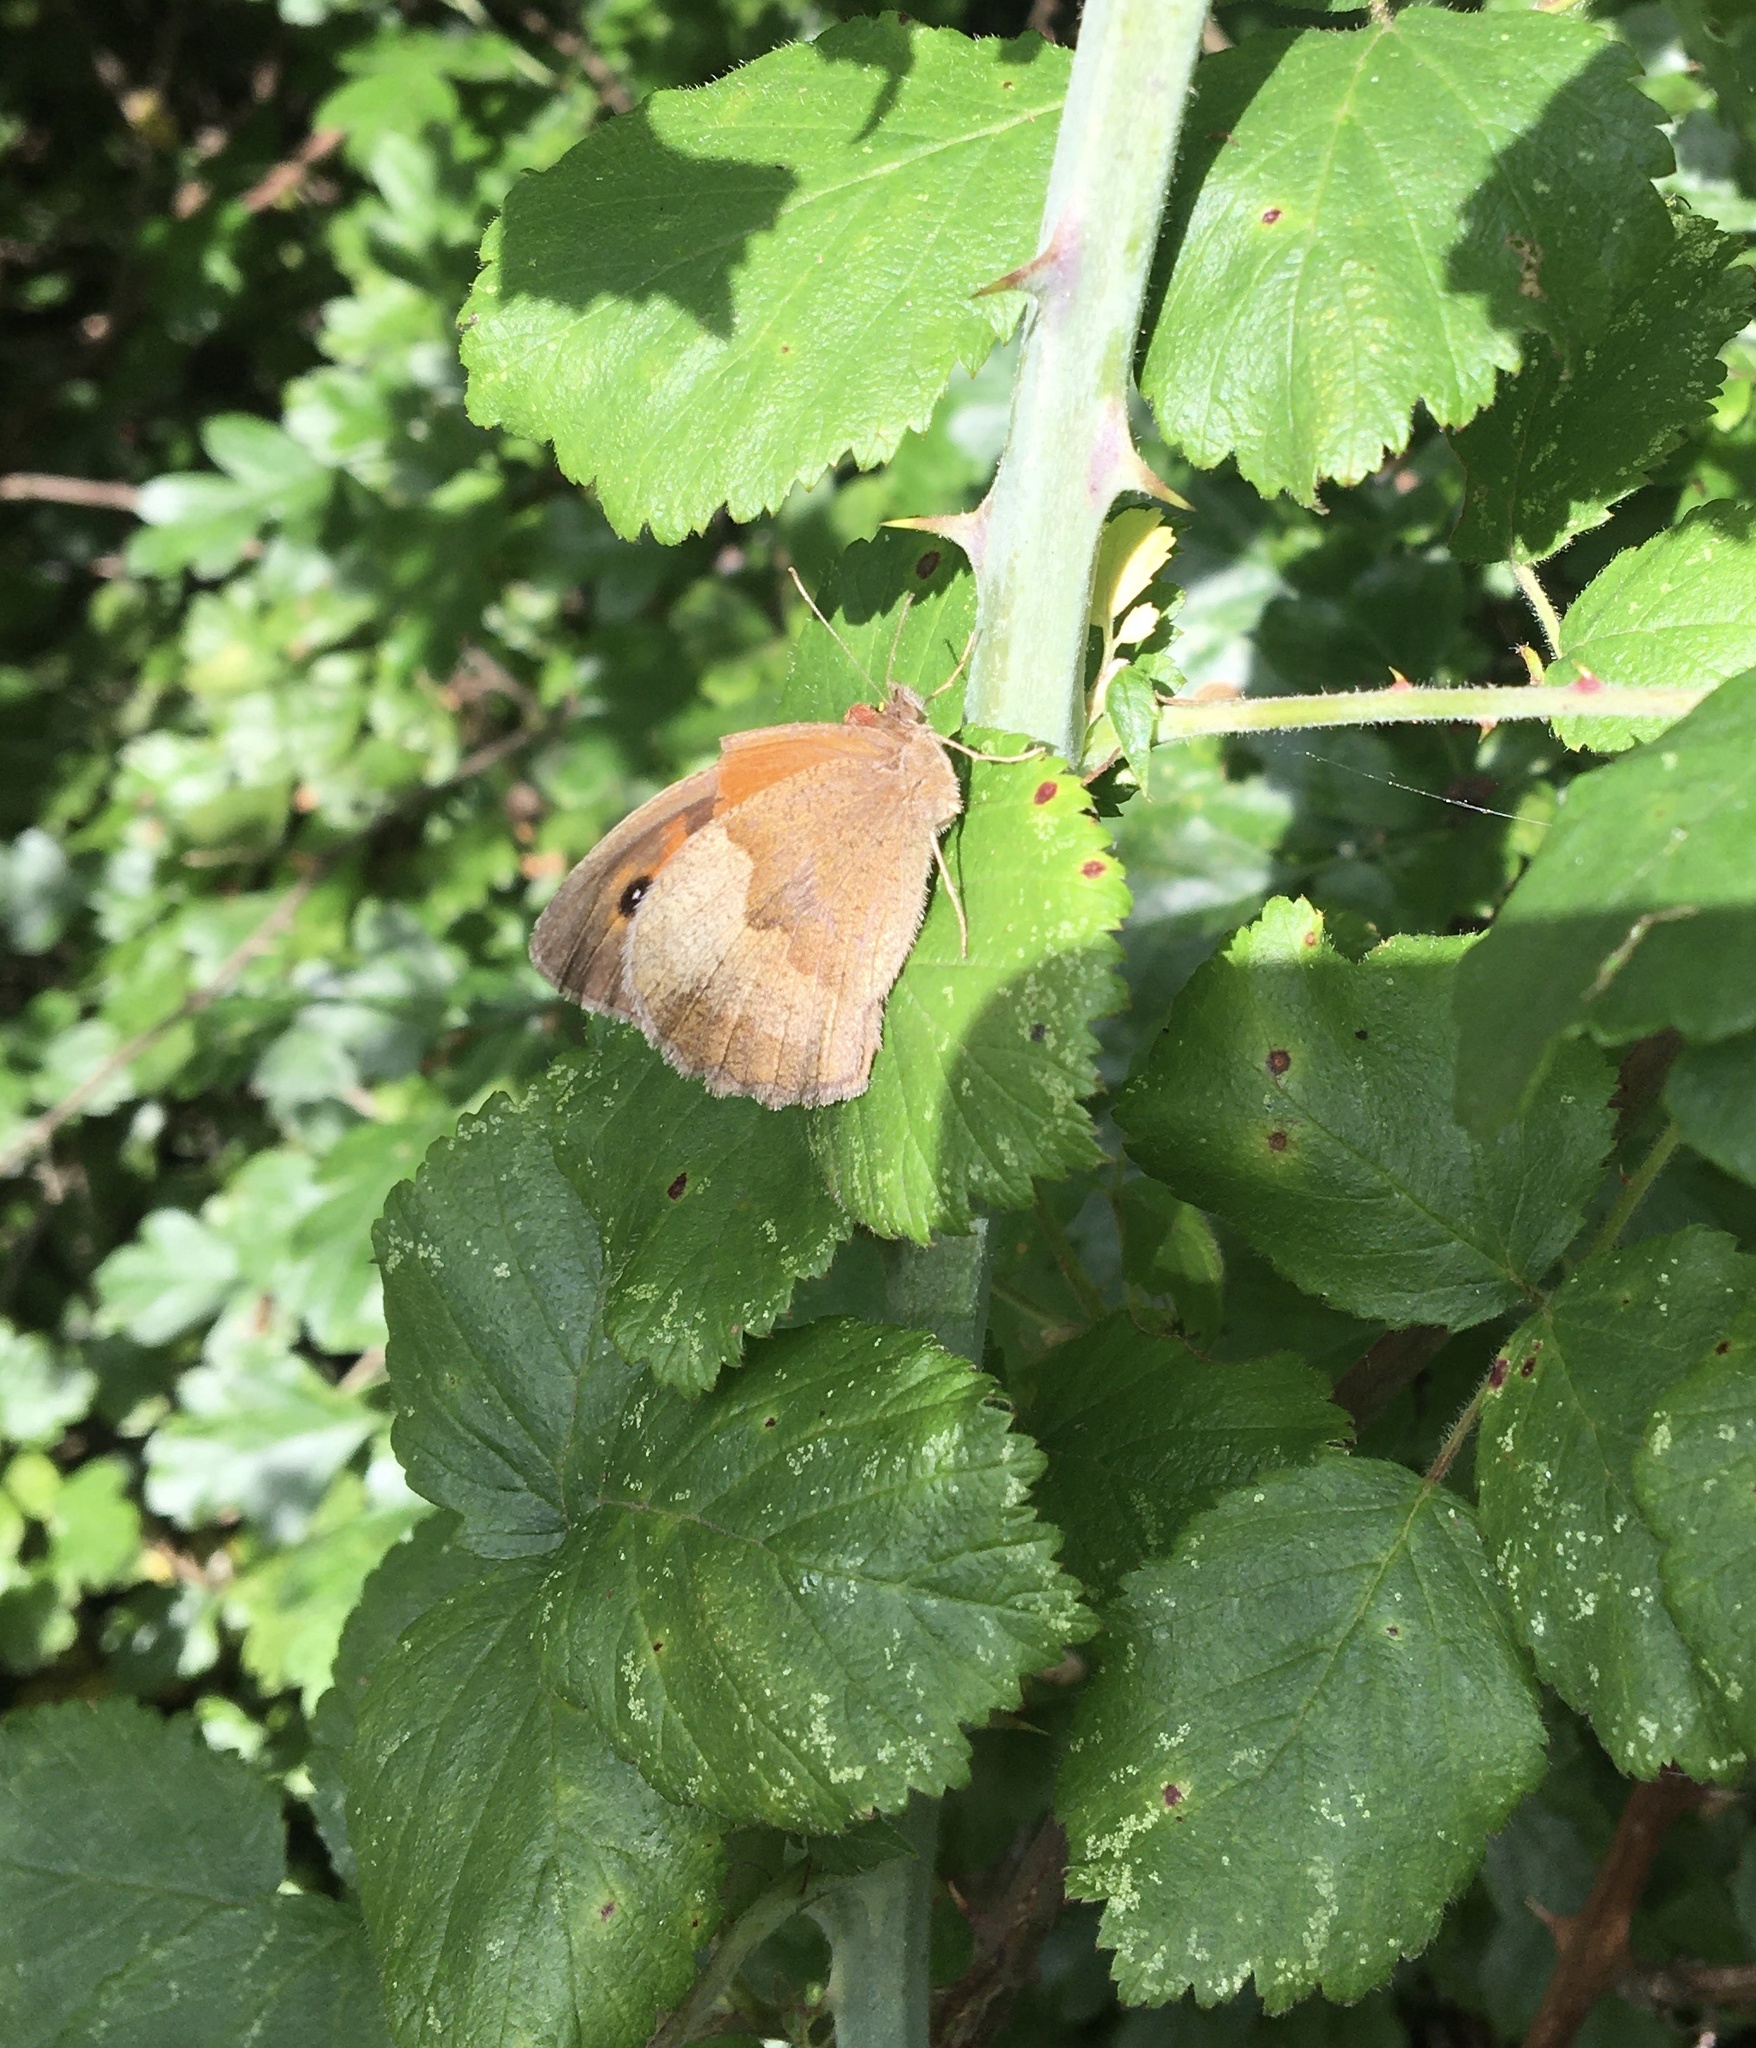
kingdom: Animalia
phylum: Arthropoda
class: Insecta
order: Lepidoptera
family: Nymphalidae
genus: Maniola
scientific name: Maniola jurtina
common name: Meadow brown
